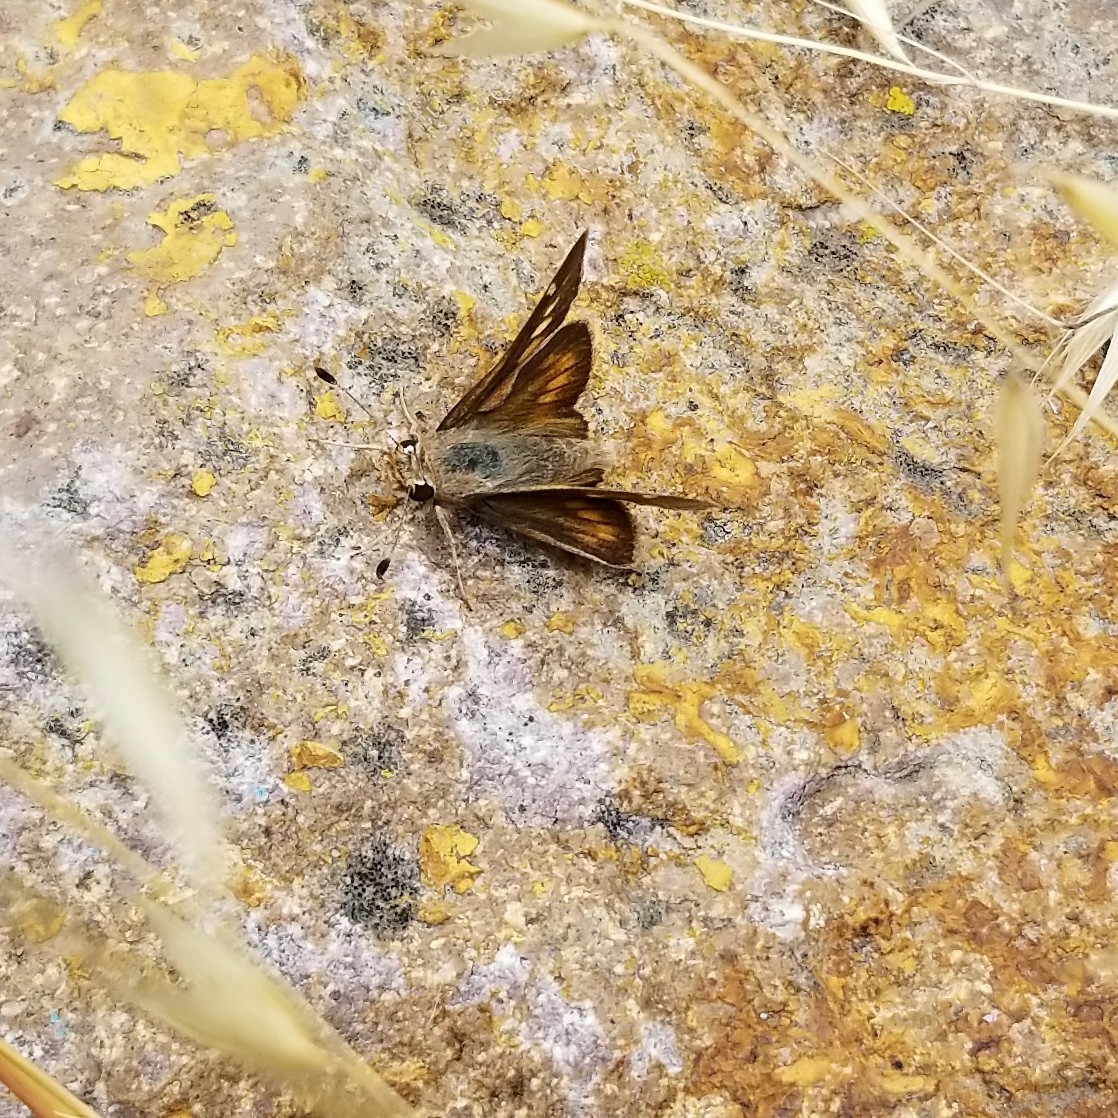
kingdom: Animalia
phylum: Arthropoda
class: Insecta
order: Lepidoptera
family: Hesperiidae
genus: Lon
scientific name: Lon melane
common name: Umber skipper
